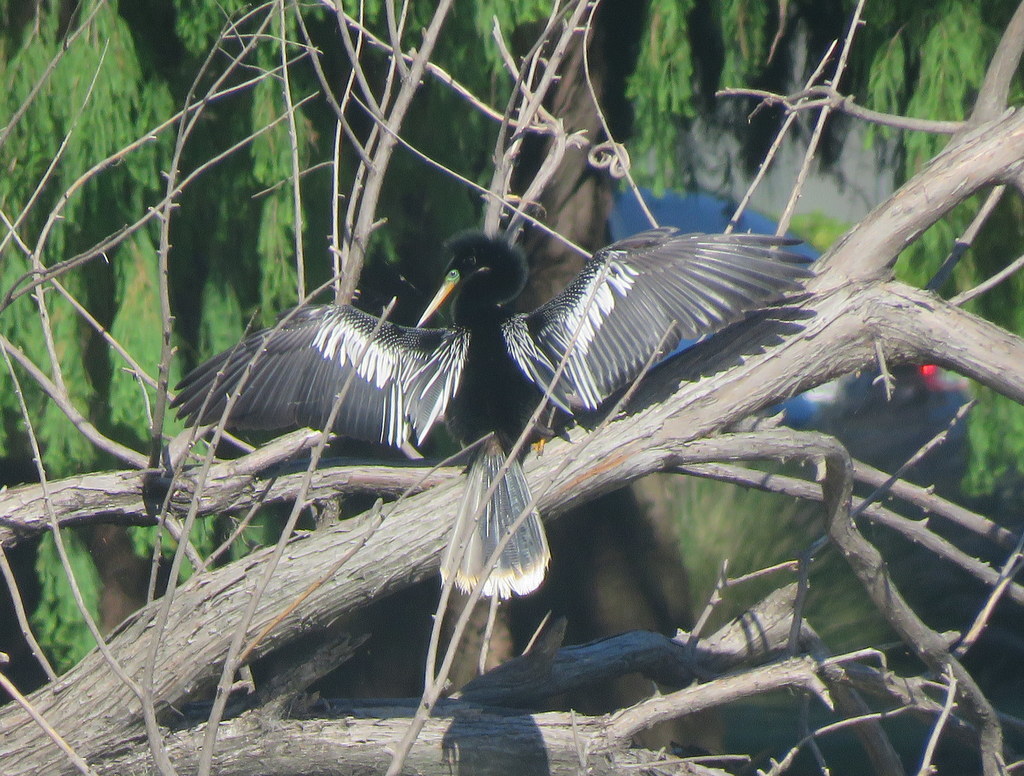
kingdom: Animalia
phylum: Chordata
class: Aves
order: Suliformes
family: Anhingidae
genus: Anhinga
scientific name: Anhinga anhinga
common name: Anhinga
